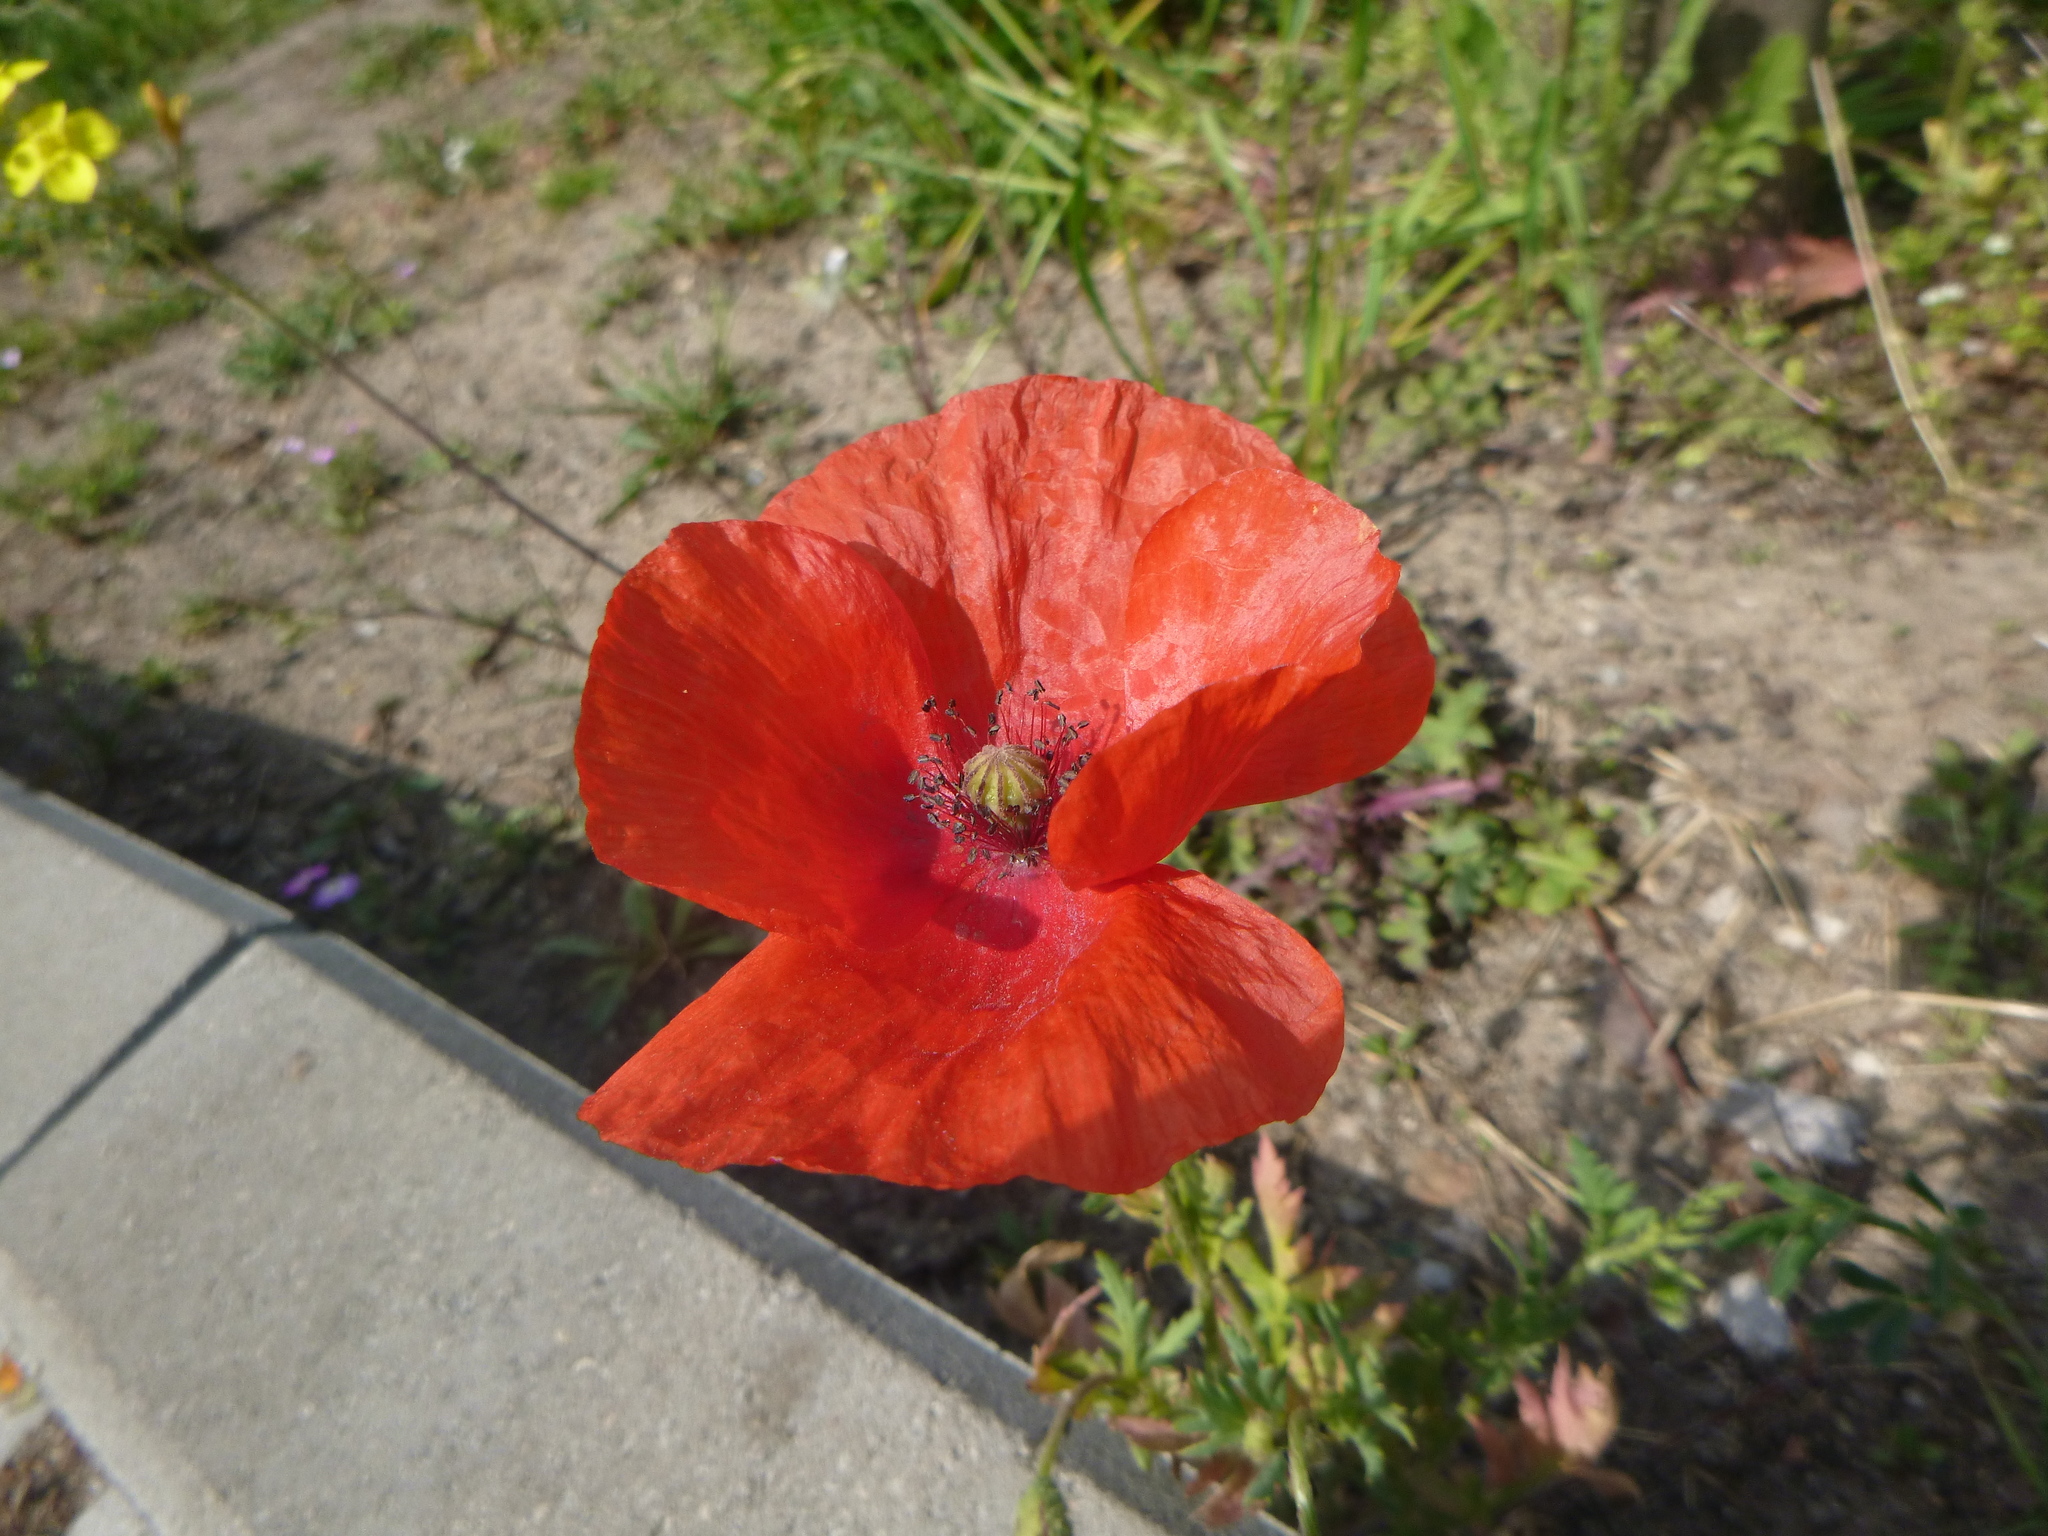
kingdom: Plantae
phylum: Tracheophyta
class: Magnoliopsida
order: Ranunculales
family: Papaveraceae
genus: Papaver
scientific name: Papaver dubium
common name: Long-headed poppy
